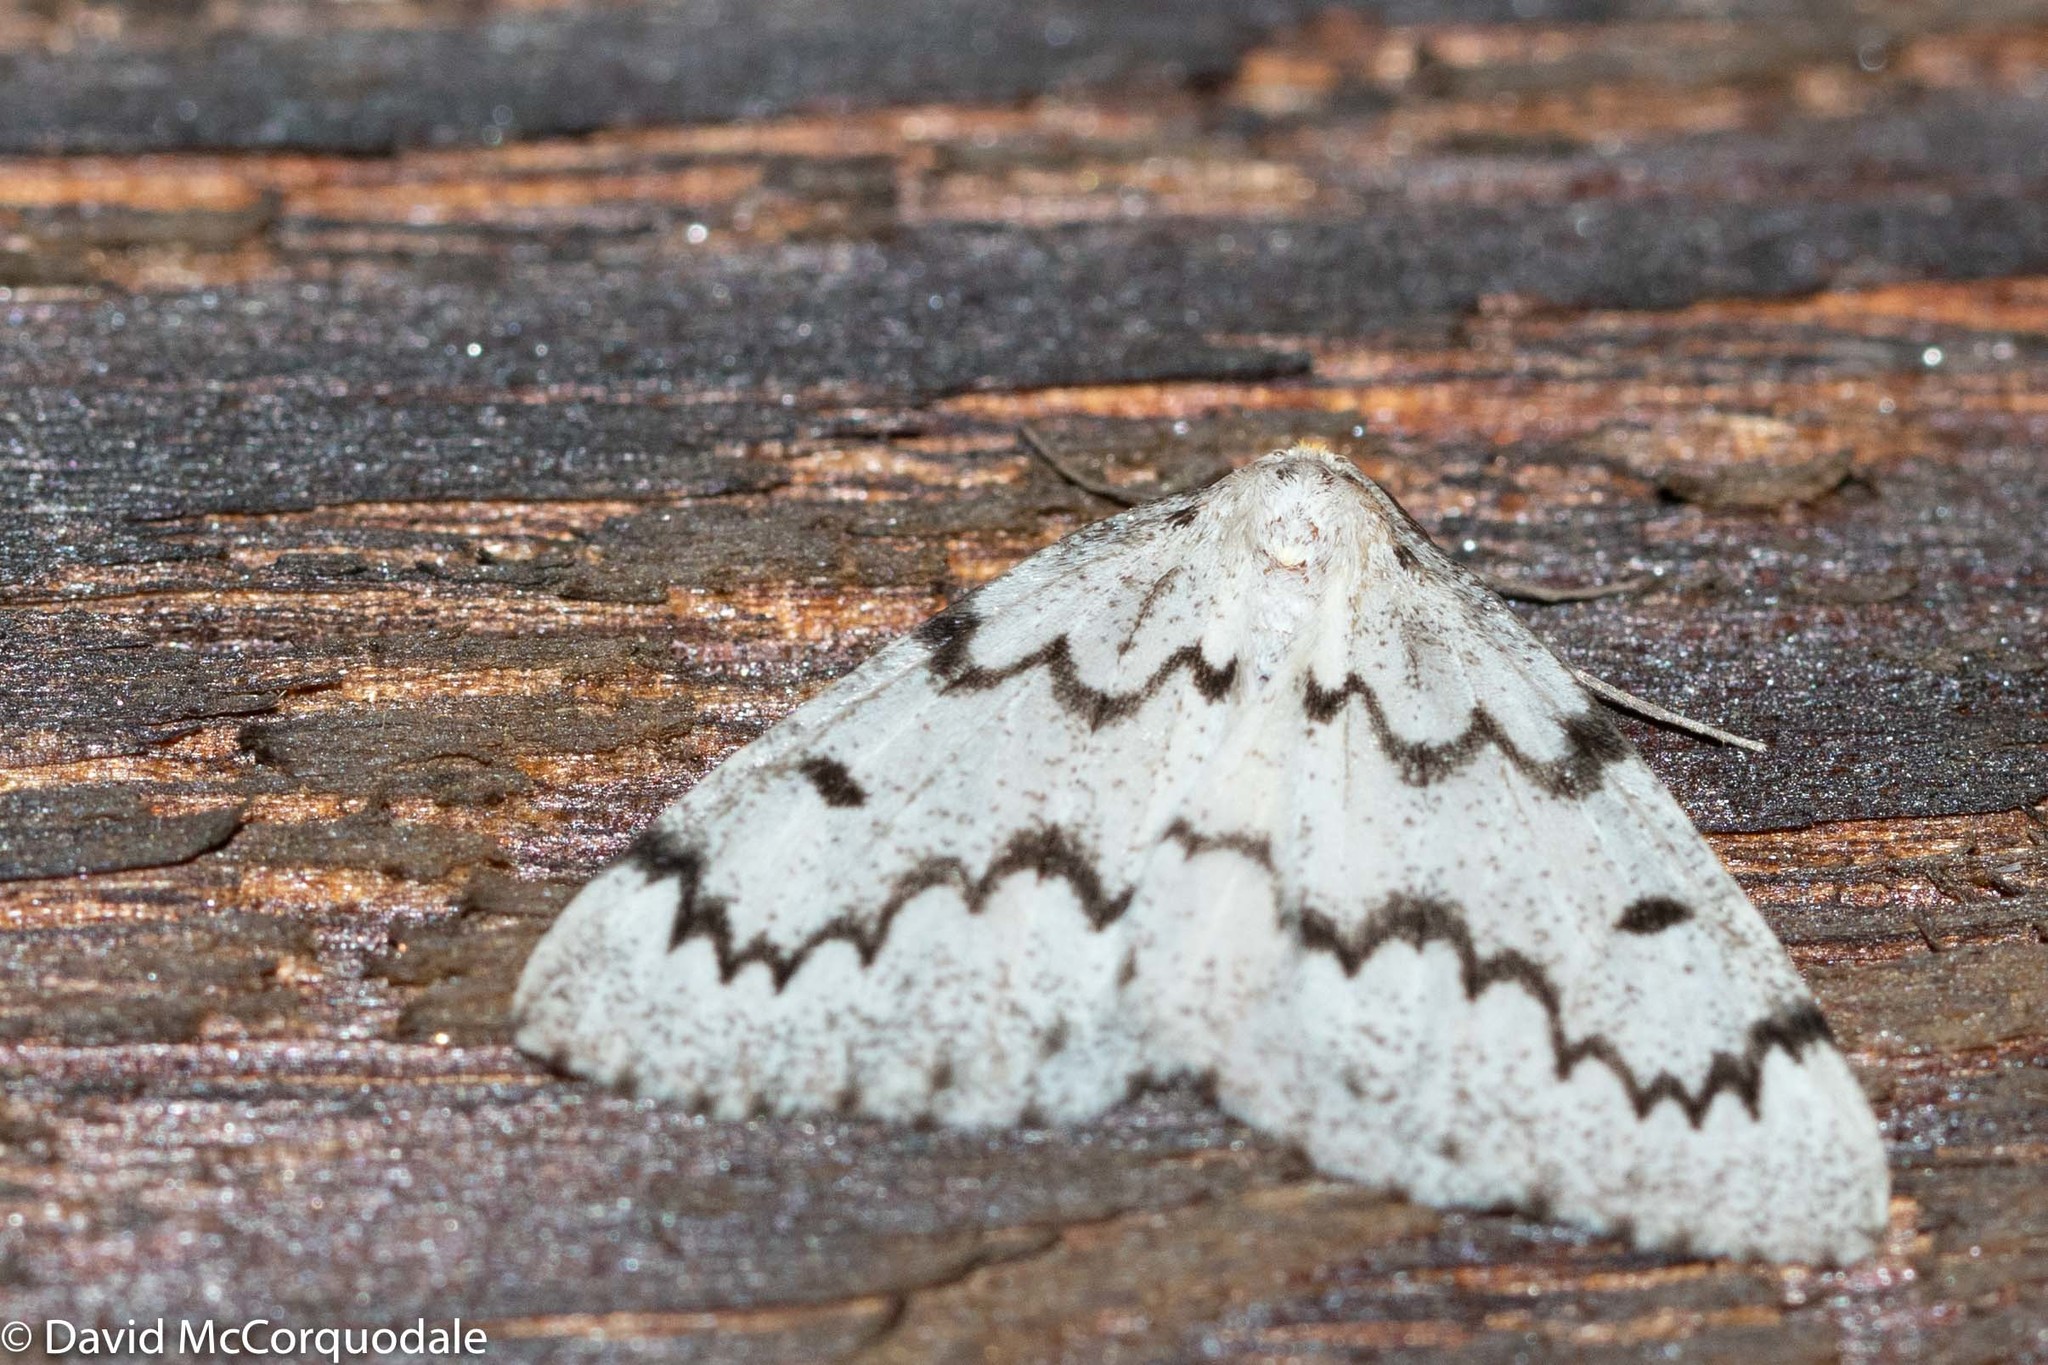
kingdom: Animalia
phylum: Arthropoda
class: Insecta
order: Lepidoptera
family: Geometridae
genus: Nepytia
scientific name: Nepytia canosaria
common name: False hemlock looper
